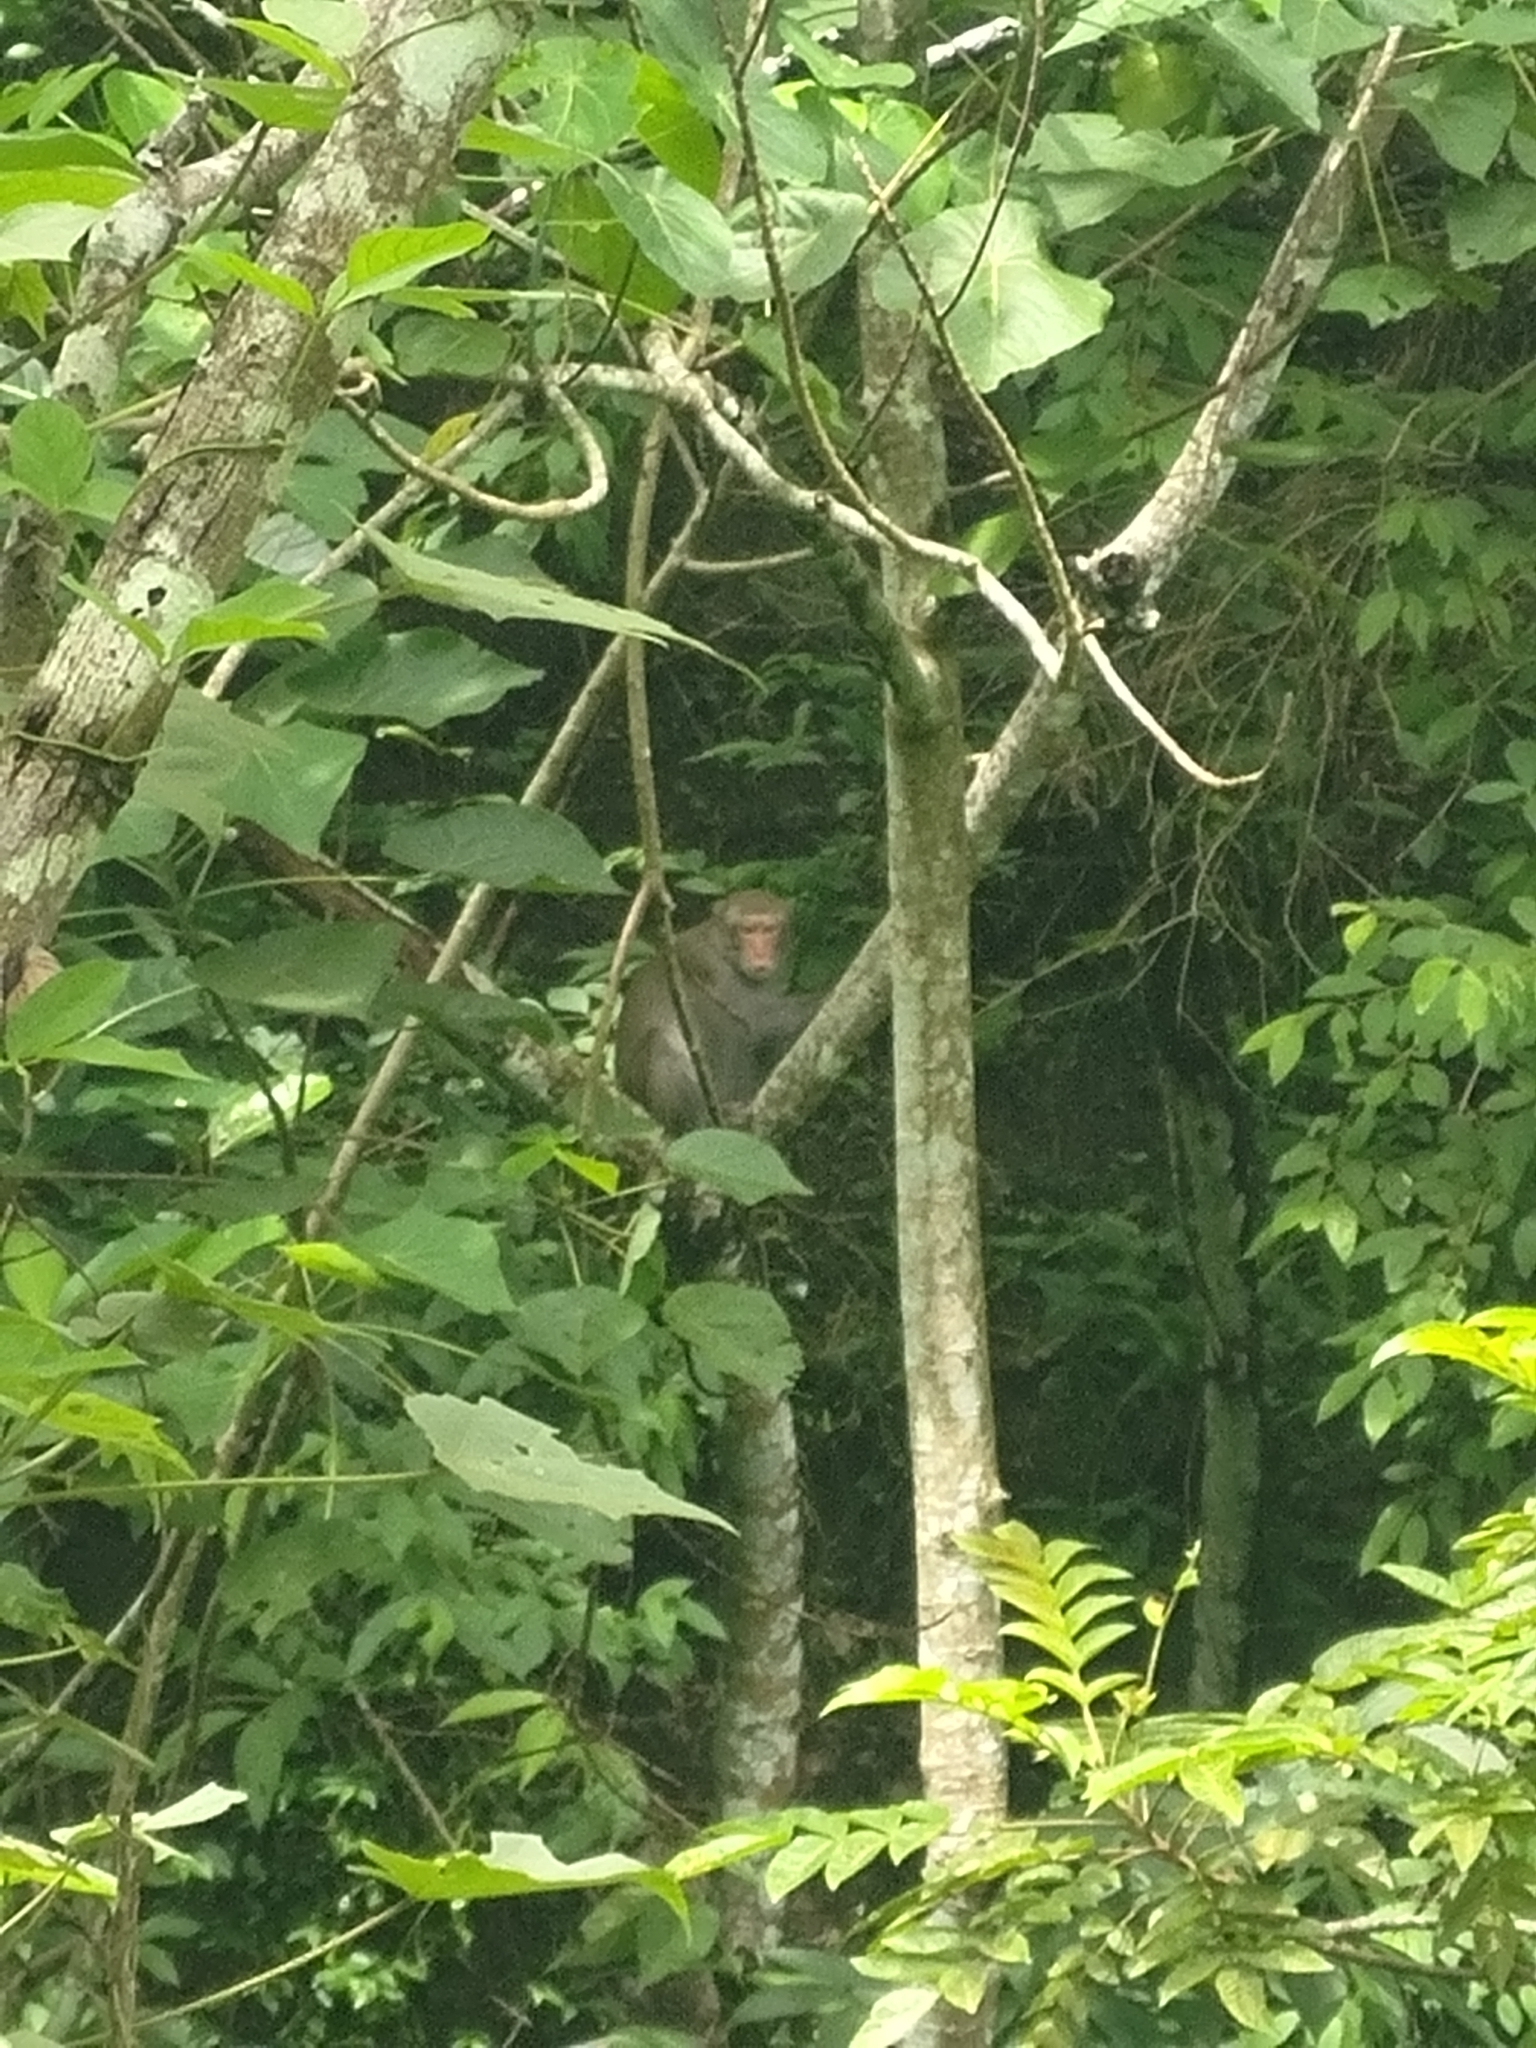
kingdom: Animalia
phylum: Chordata
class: Mammalia
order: Primates
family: Cercopithecidae
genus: Macaca
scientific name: Macaca cyclopis
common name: Formosan rock macaque
